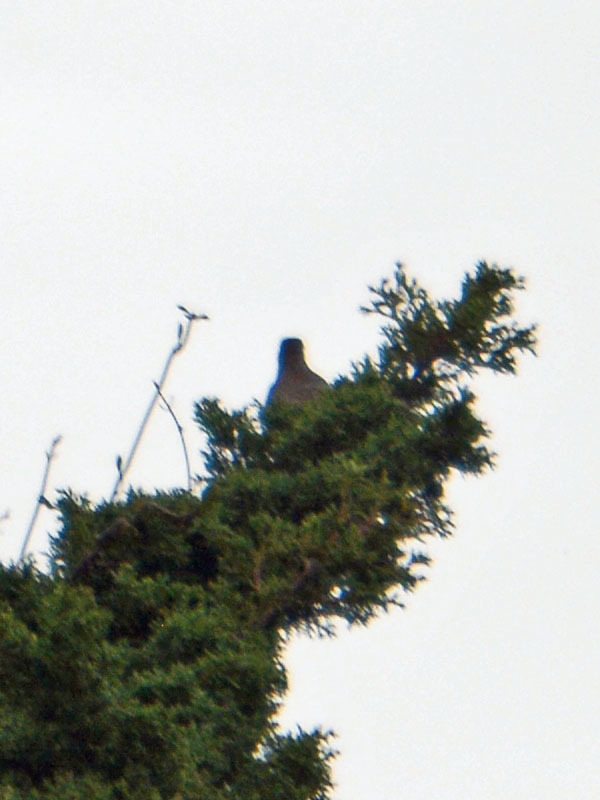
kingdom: Animalia
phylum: Chordata
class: Aves
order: Passeriformes
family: Turdidae
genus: Turdus
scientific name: Turdus migratorius
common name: American robin
